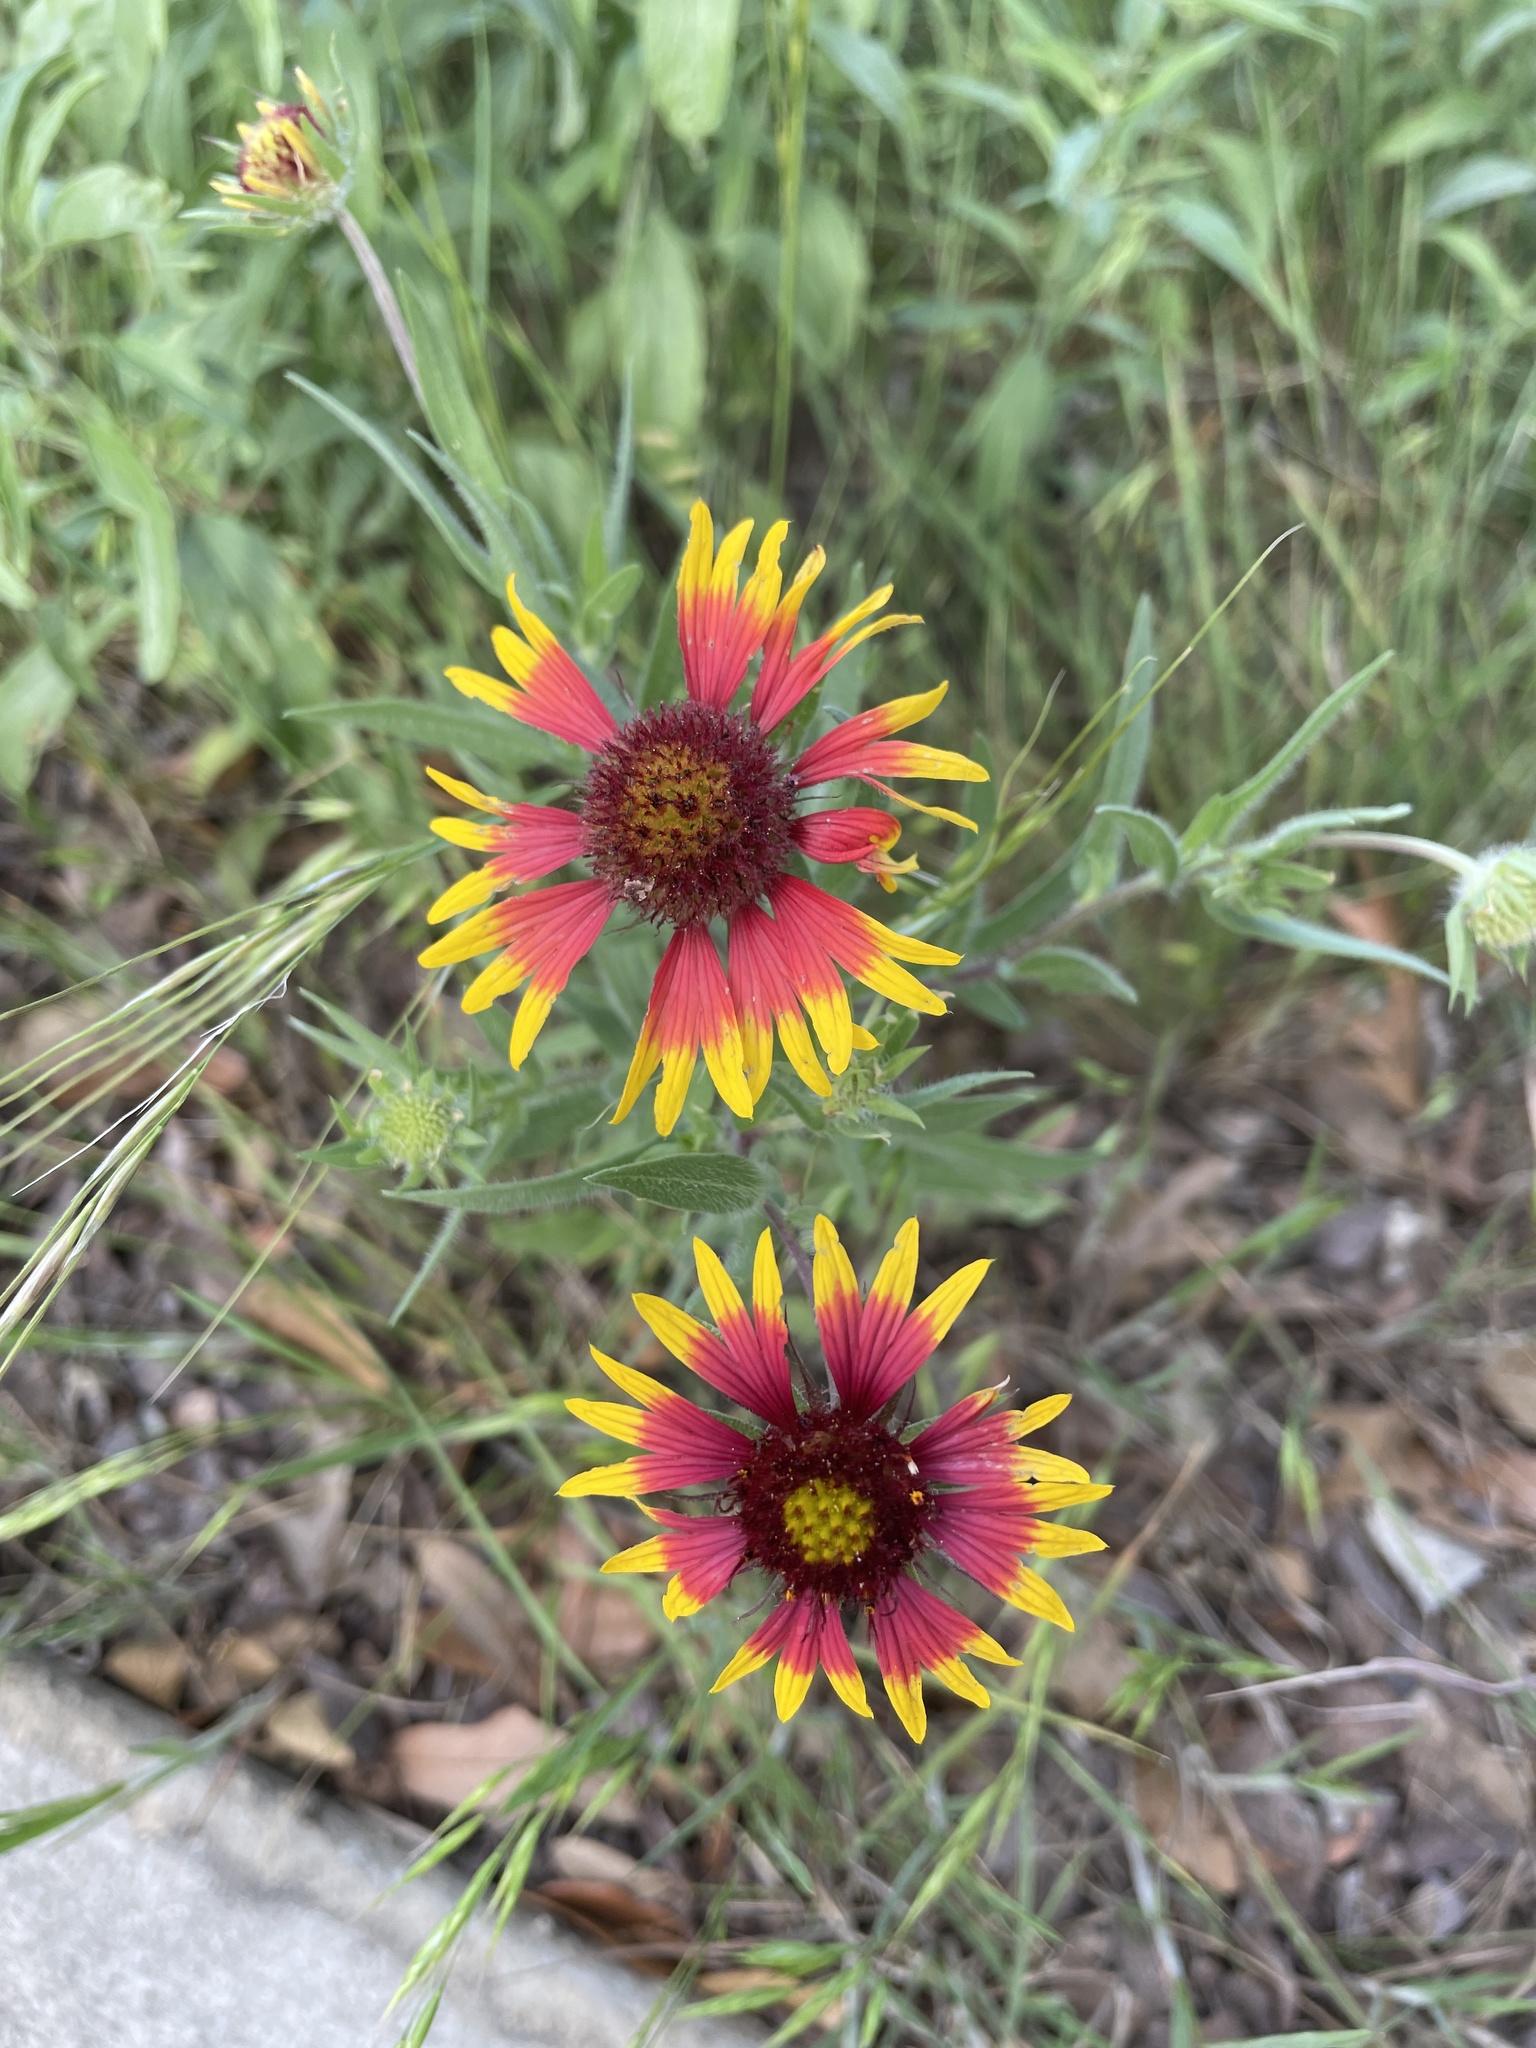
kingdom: Plantae
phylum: Tracheophyta
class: Magnoliopsida
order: Asterales
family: Asteraceae
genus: Gaillardia
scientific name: Gaillardia pulchella
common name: Firewheel
